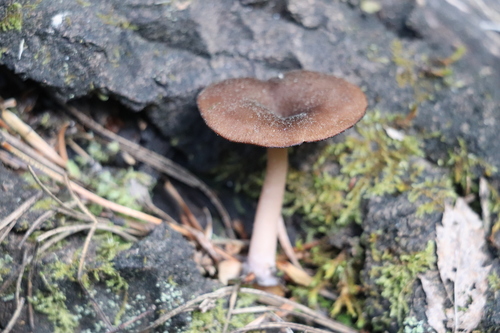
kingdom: Fungi
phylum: Basidiomycota
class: Agaricomycetes
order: Agaricales
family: Hygrophoraceae
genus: Arrhenia
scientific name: Arrhenia discorosea
